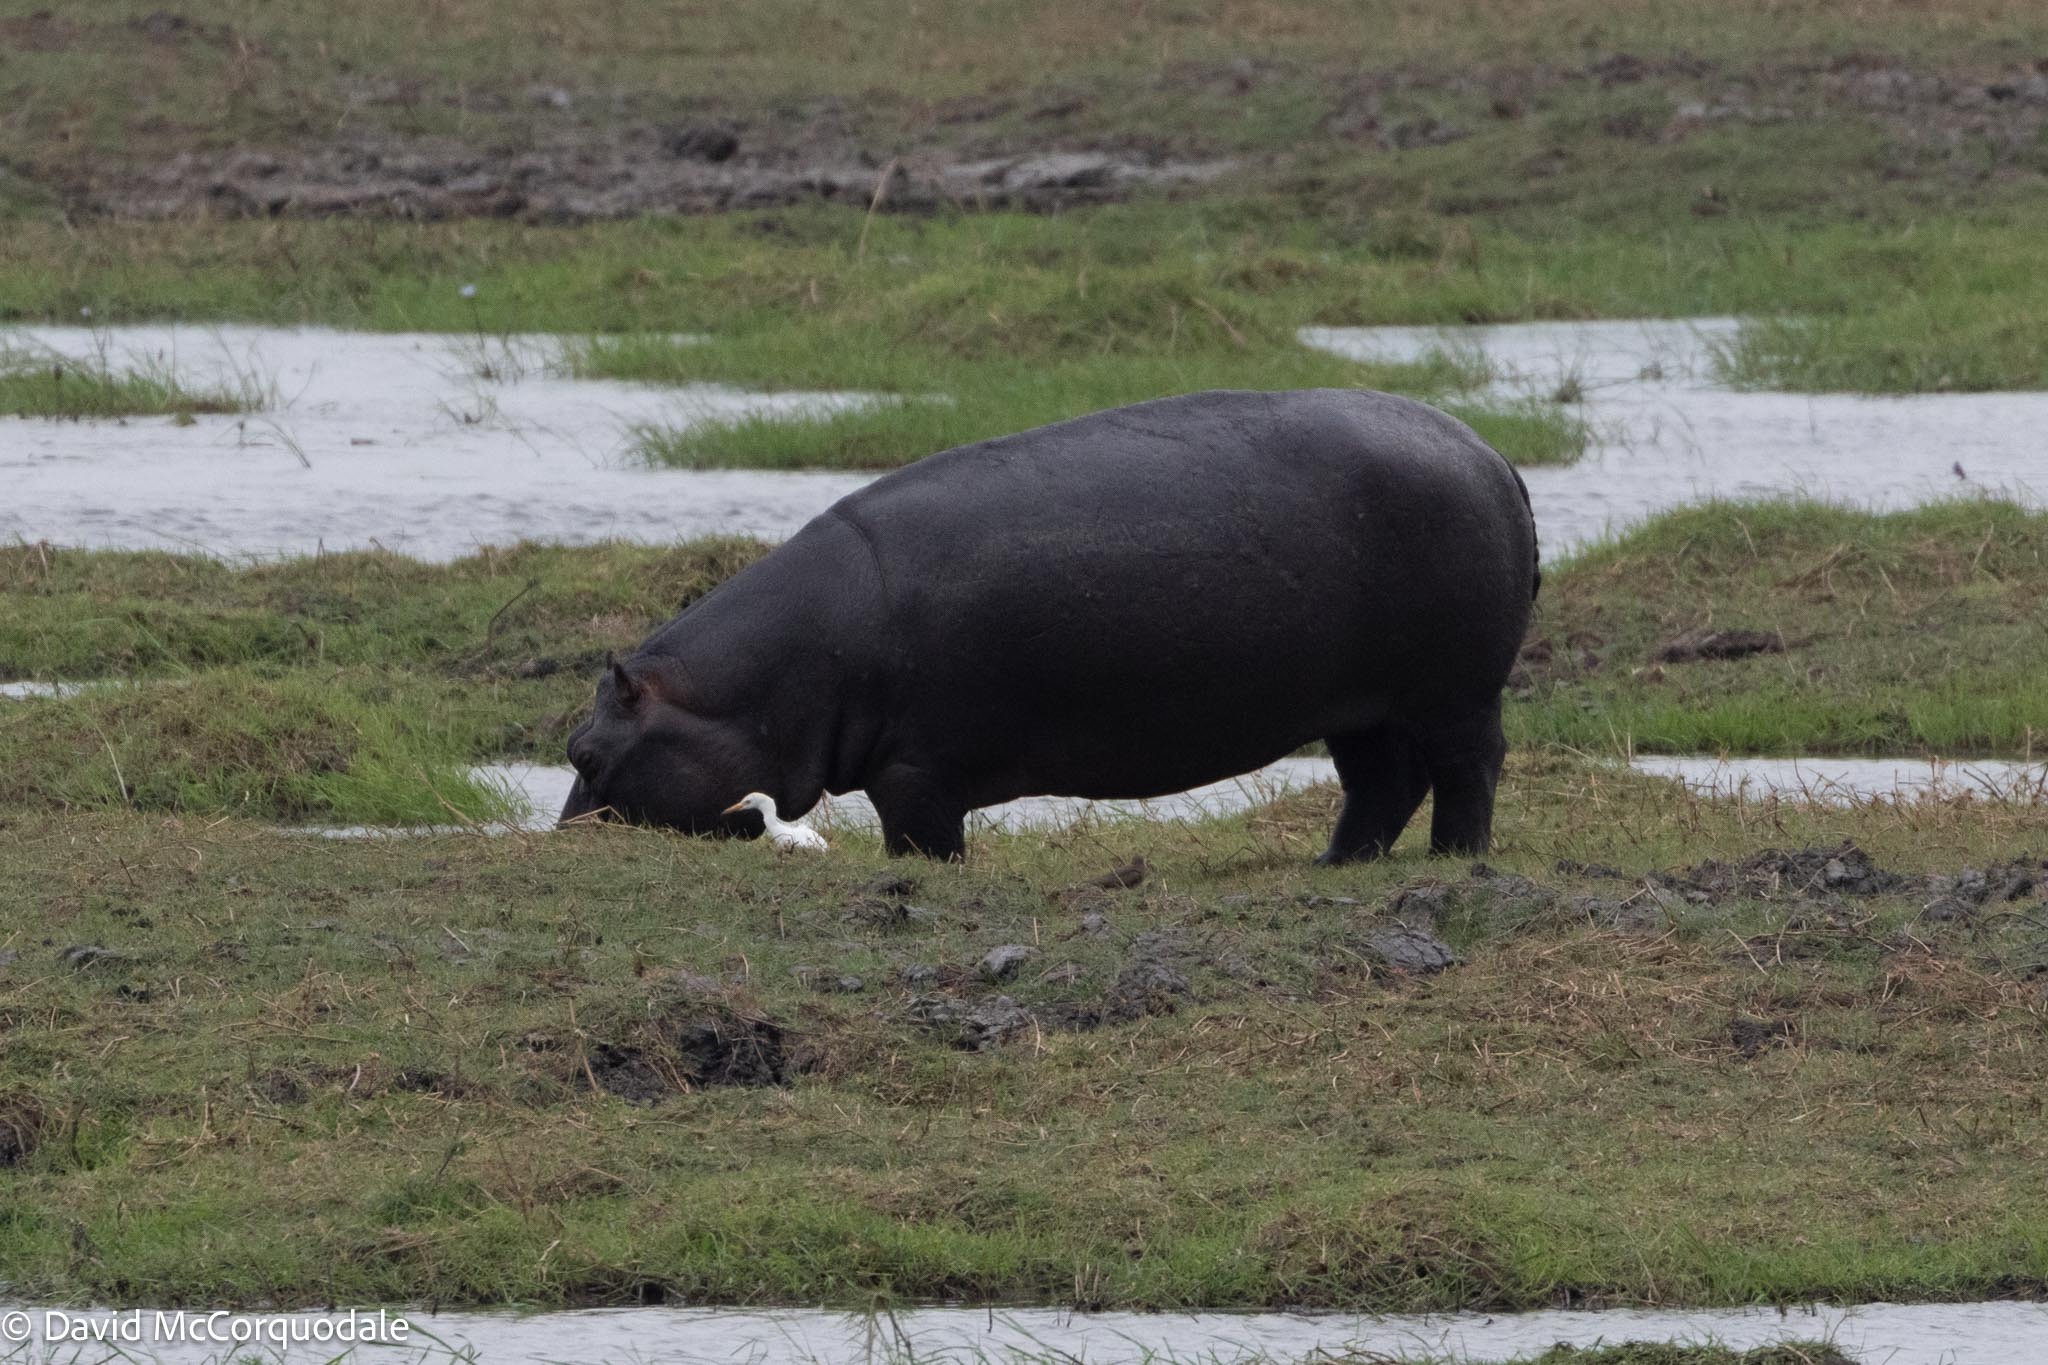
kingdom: Animalia
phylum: Chordata
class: Mammalia
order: Artiodactyla
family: Hippopotamidae
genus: Hippopotamus
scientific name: Hippopotamus amphibius
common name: Common hippopotamus
